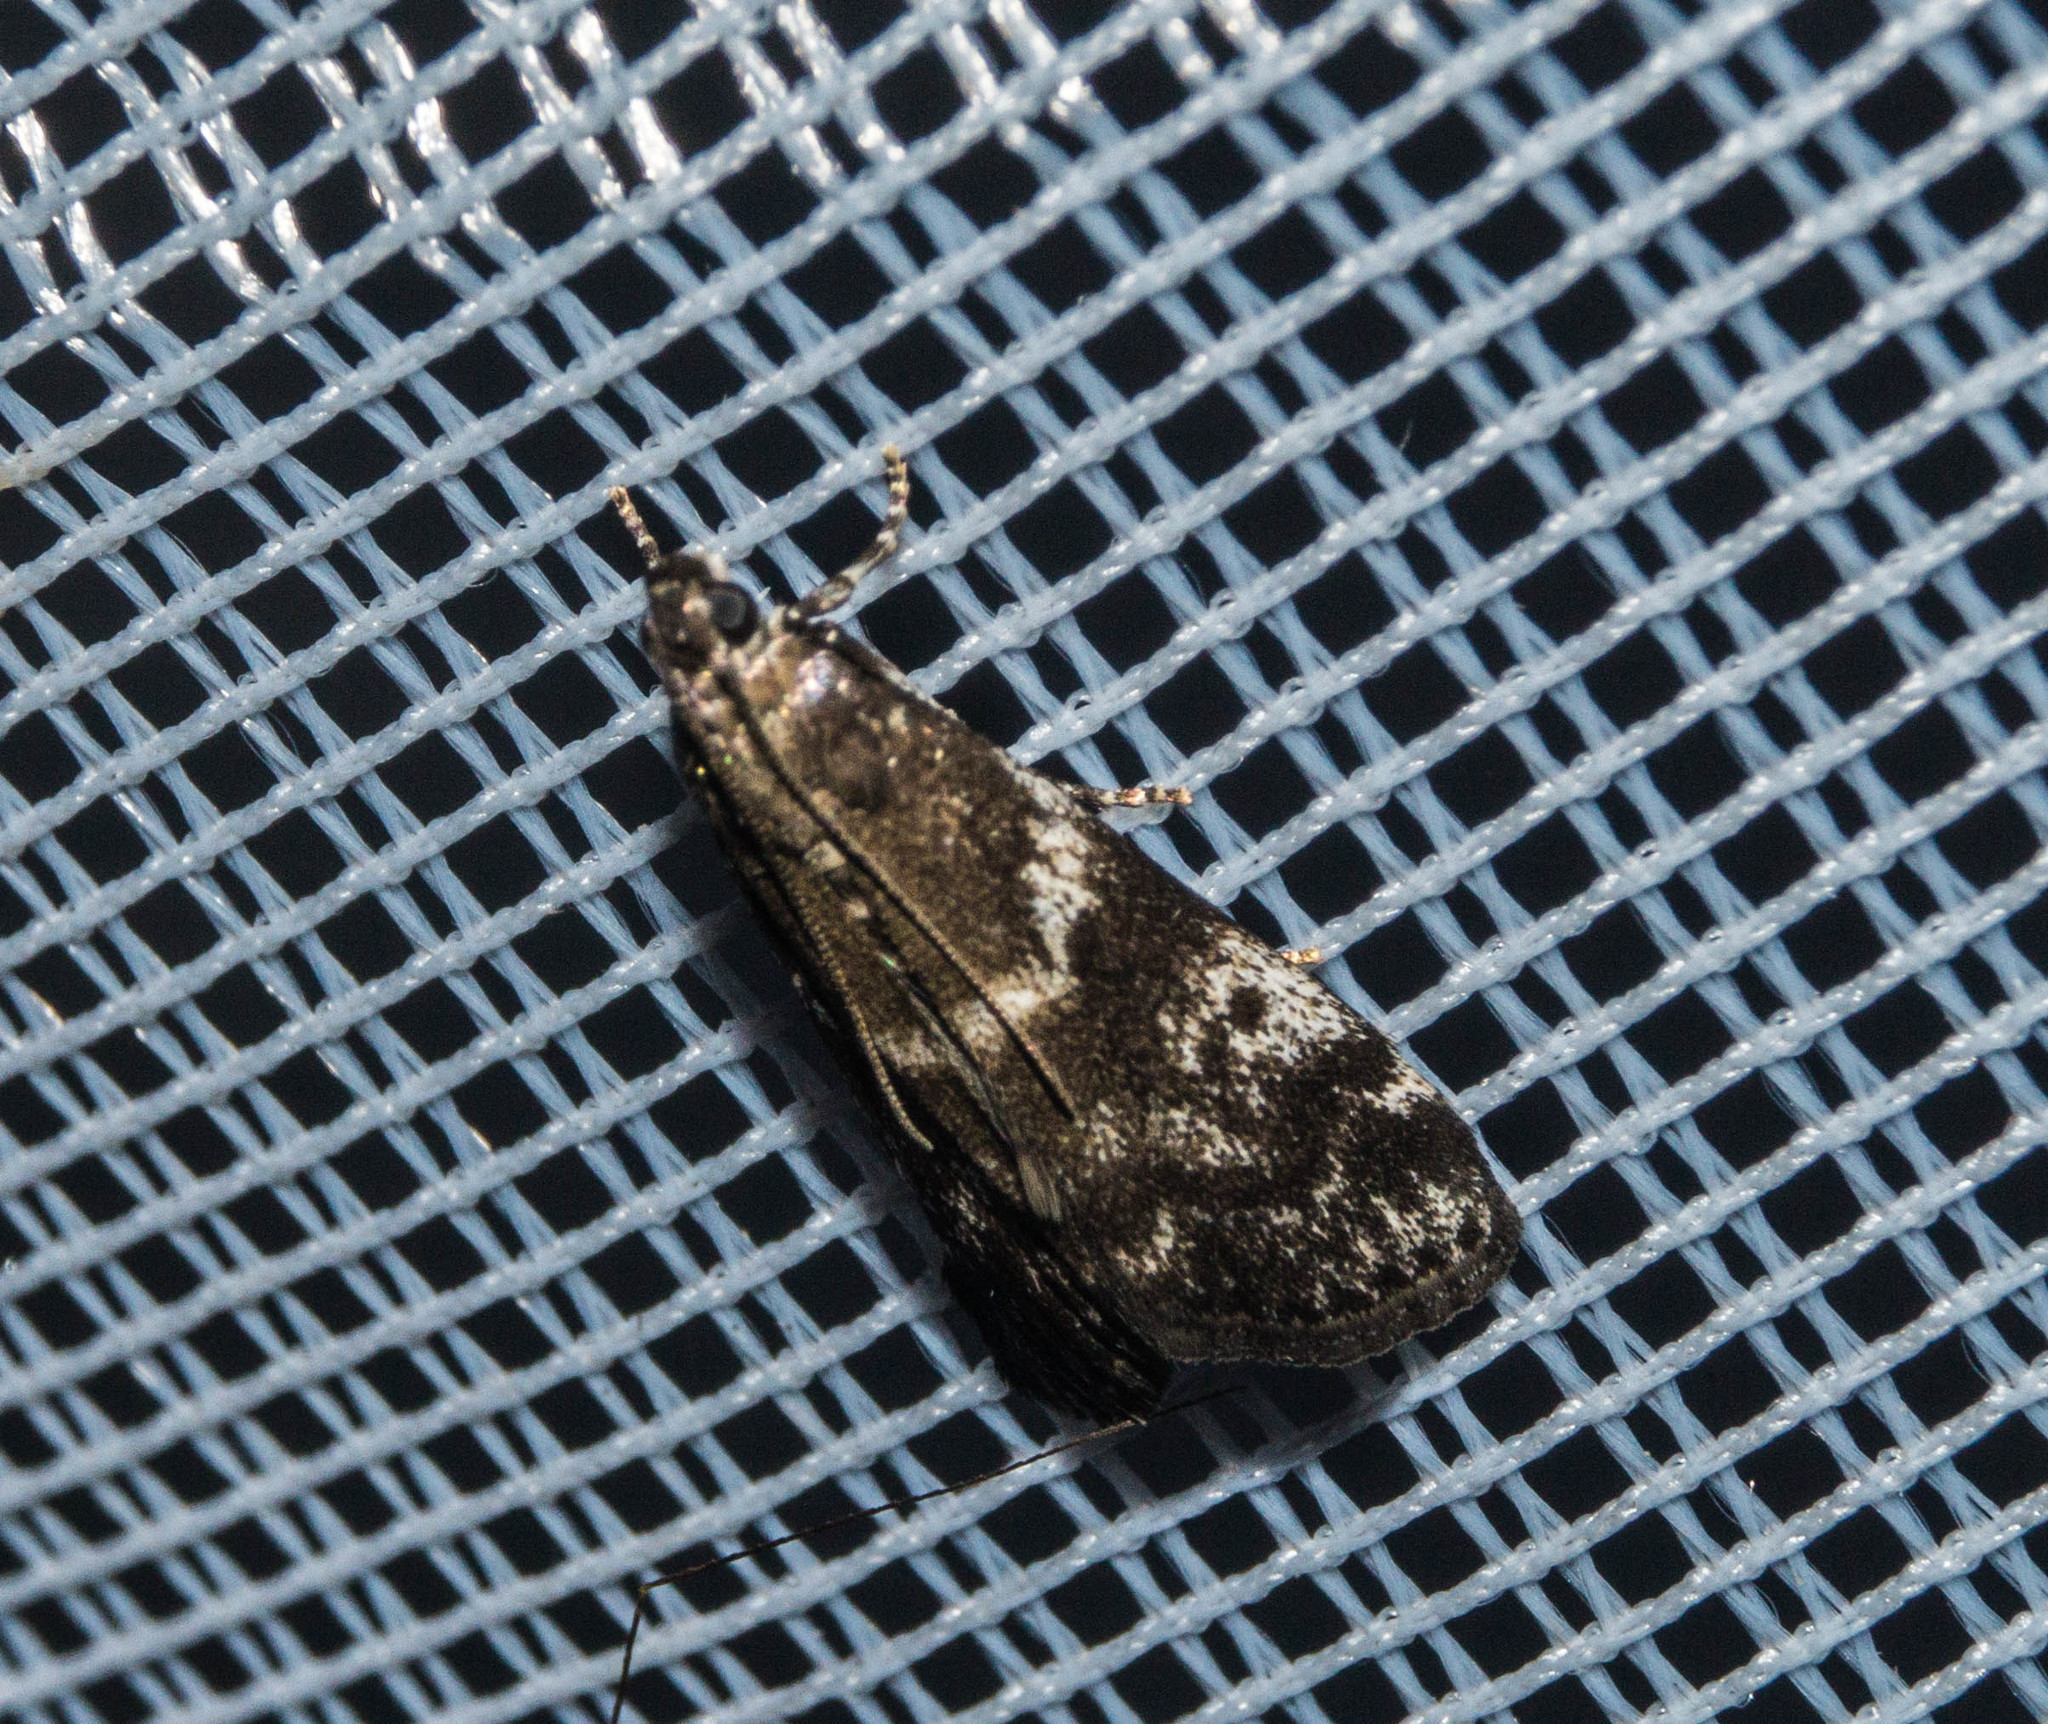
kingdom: Animalia
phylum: Arthropoda
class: Insecta
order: Lepidoptera
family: Pyralidae
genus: Assara
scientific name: Assara terebrella
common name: Dark spruce knot-horn
